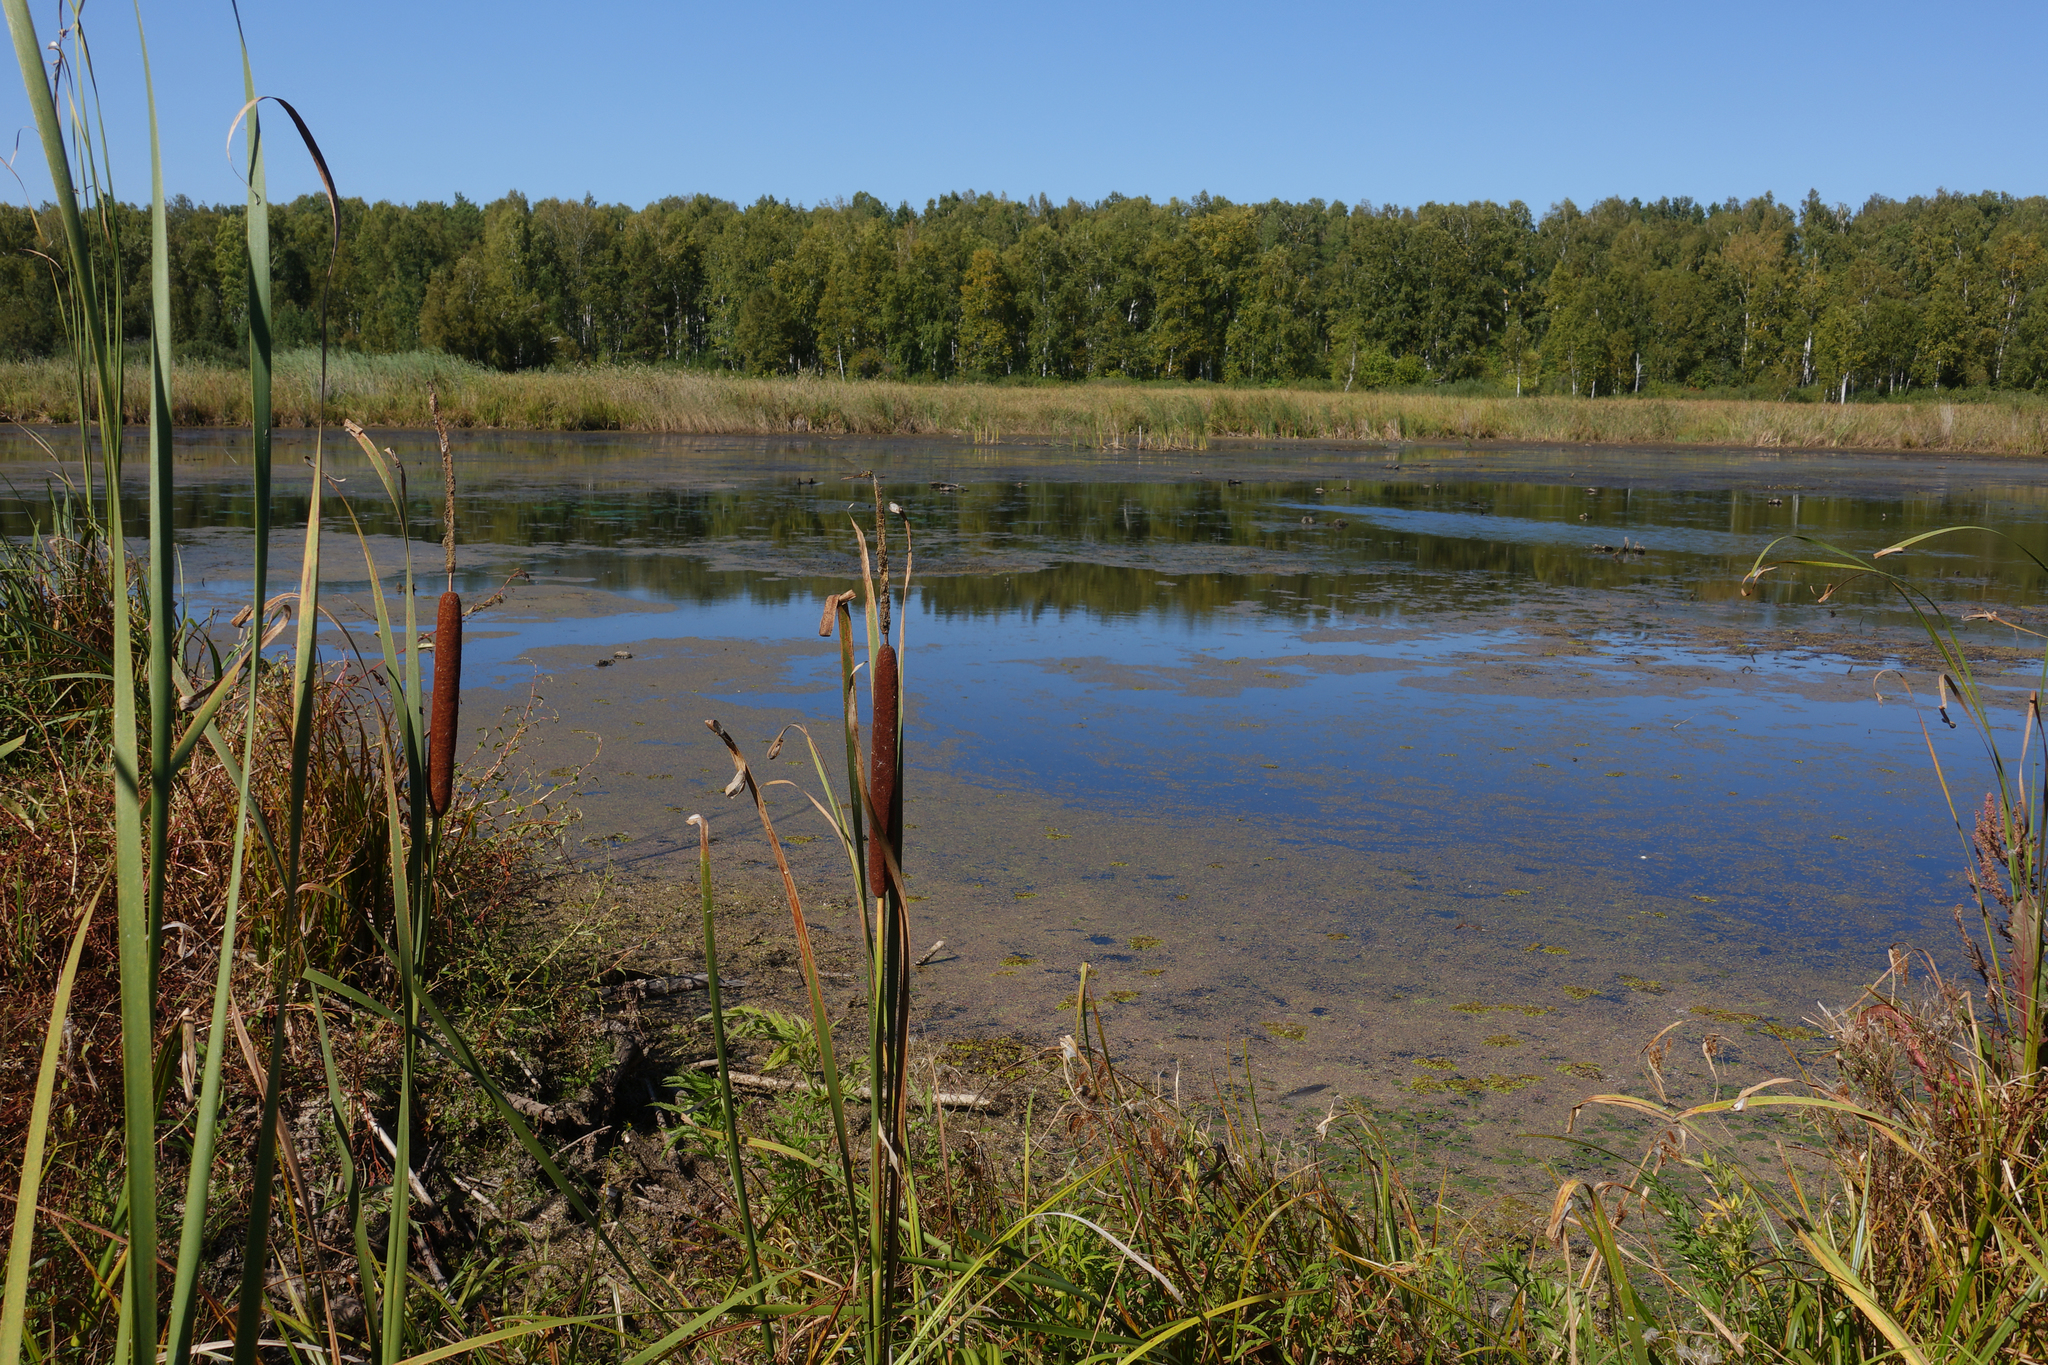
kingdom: Plantae
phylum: Tracheophyta
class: Liliopsida
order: Poales
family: Typhaceae
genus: Typha
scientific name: Typha angustifolia
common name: Lesser bulrush
